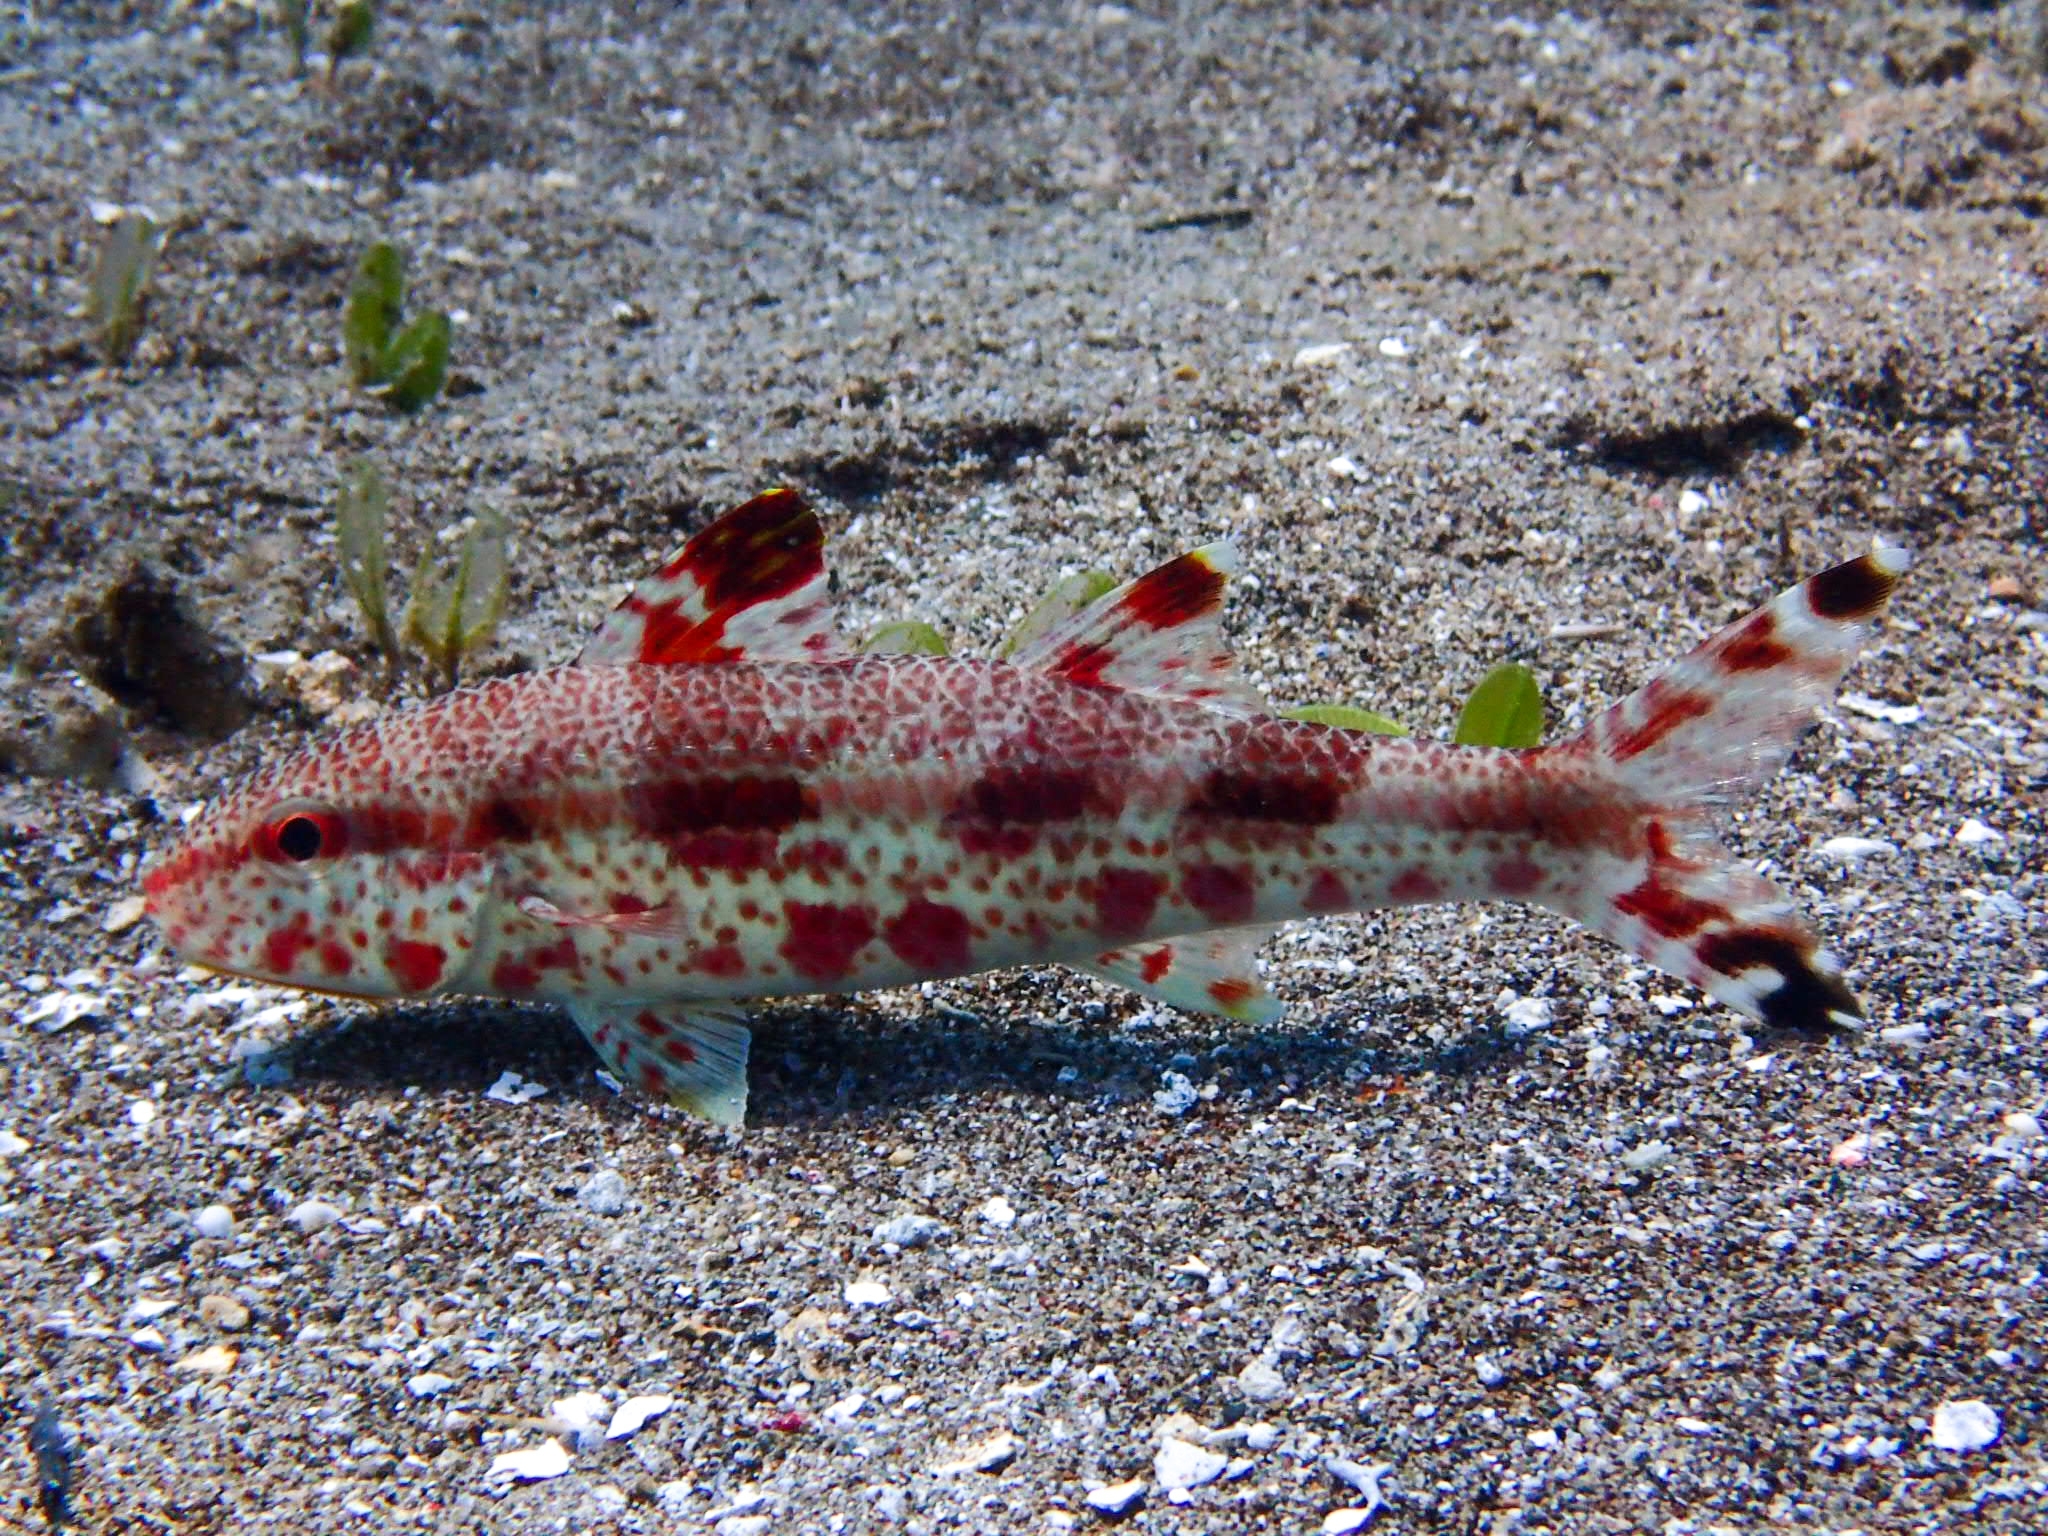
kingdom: Animalia
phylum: Chordata
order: Perciformes
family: Mullidae
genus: Upeneus
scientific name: Upeneus tragula
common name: Freckled goatfish
